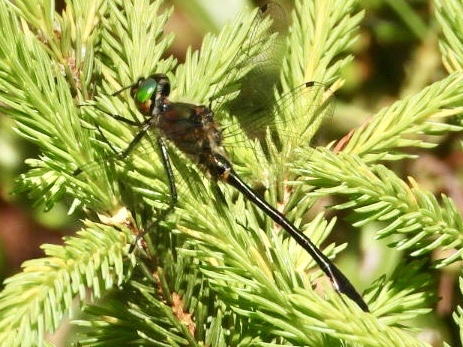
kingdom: Animalia
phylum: Arthropoda
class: Insecta
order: Odonata
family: Corduliidae
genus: Dorocordulia
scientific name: Dorocordulia libera
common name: Racket-tailed emerald
